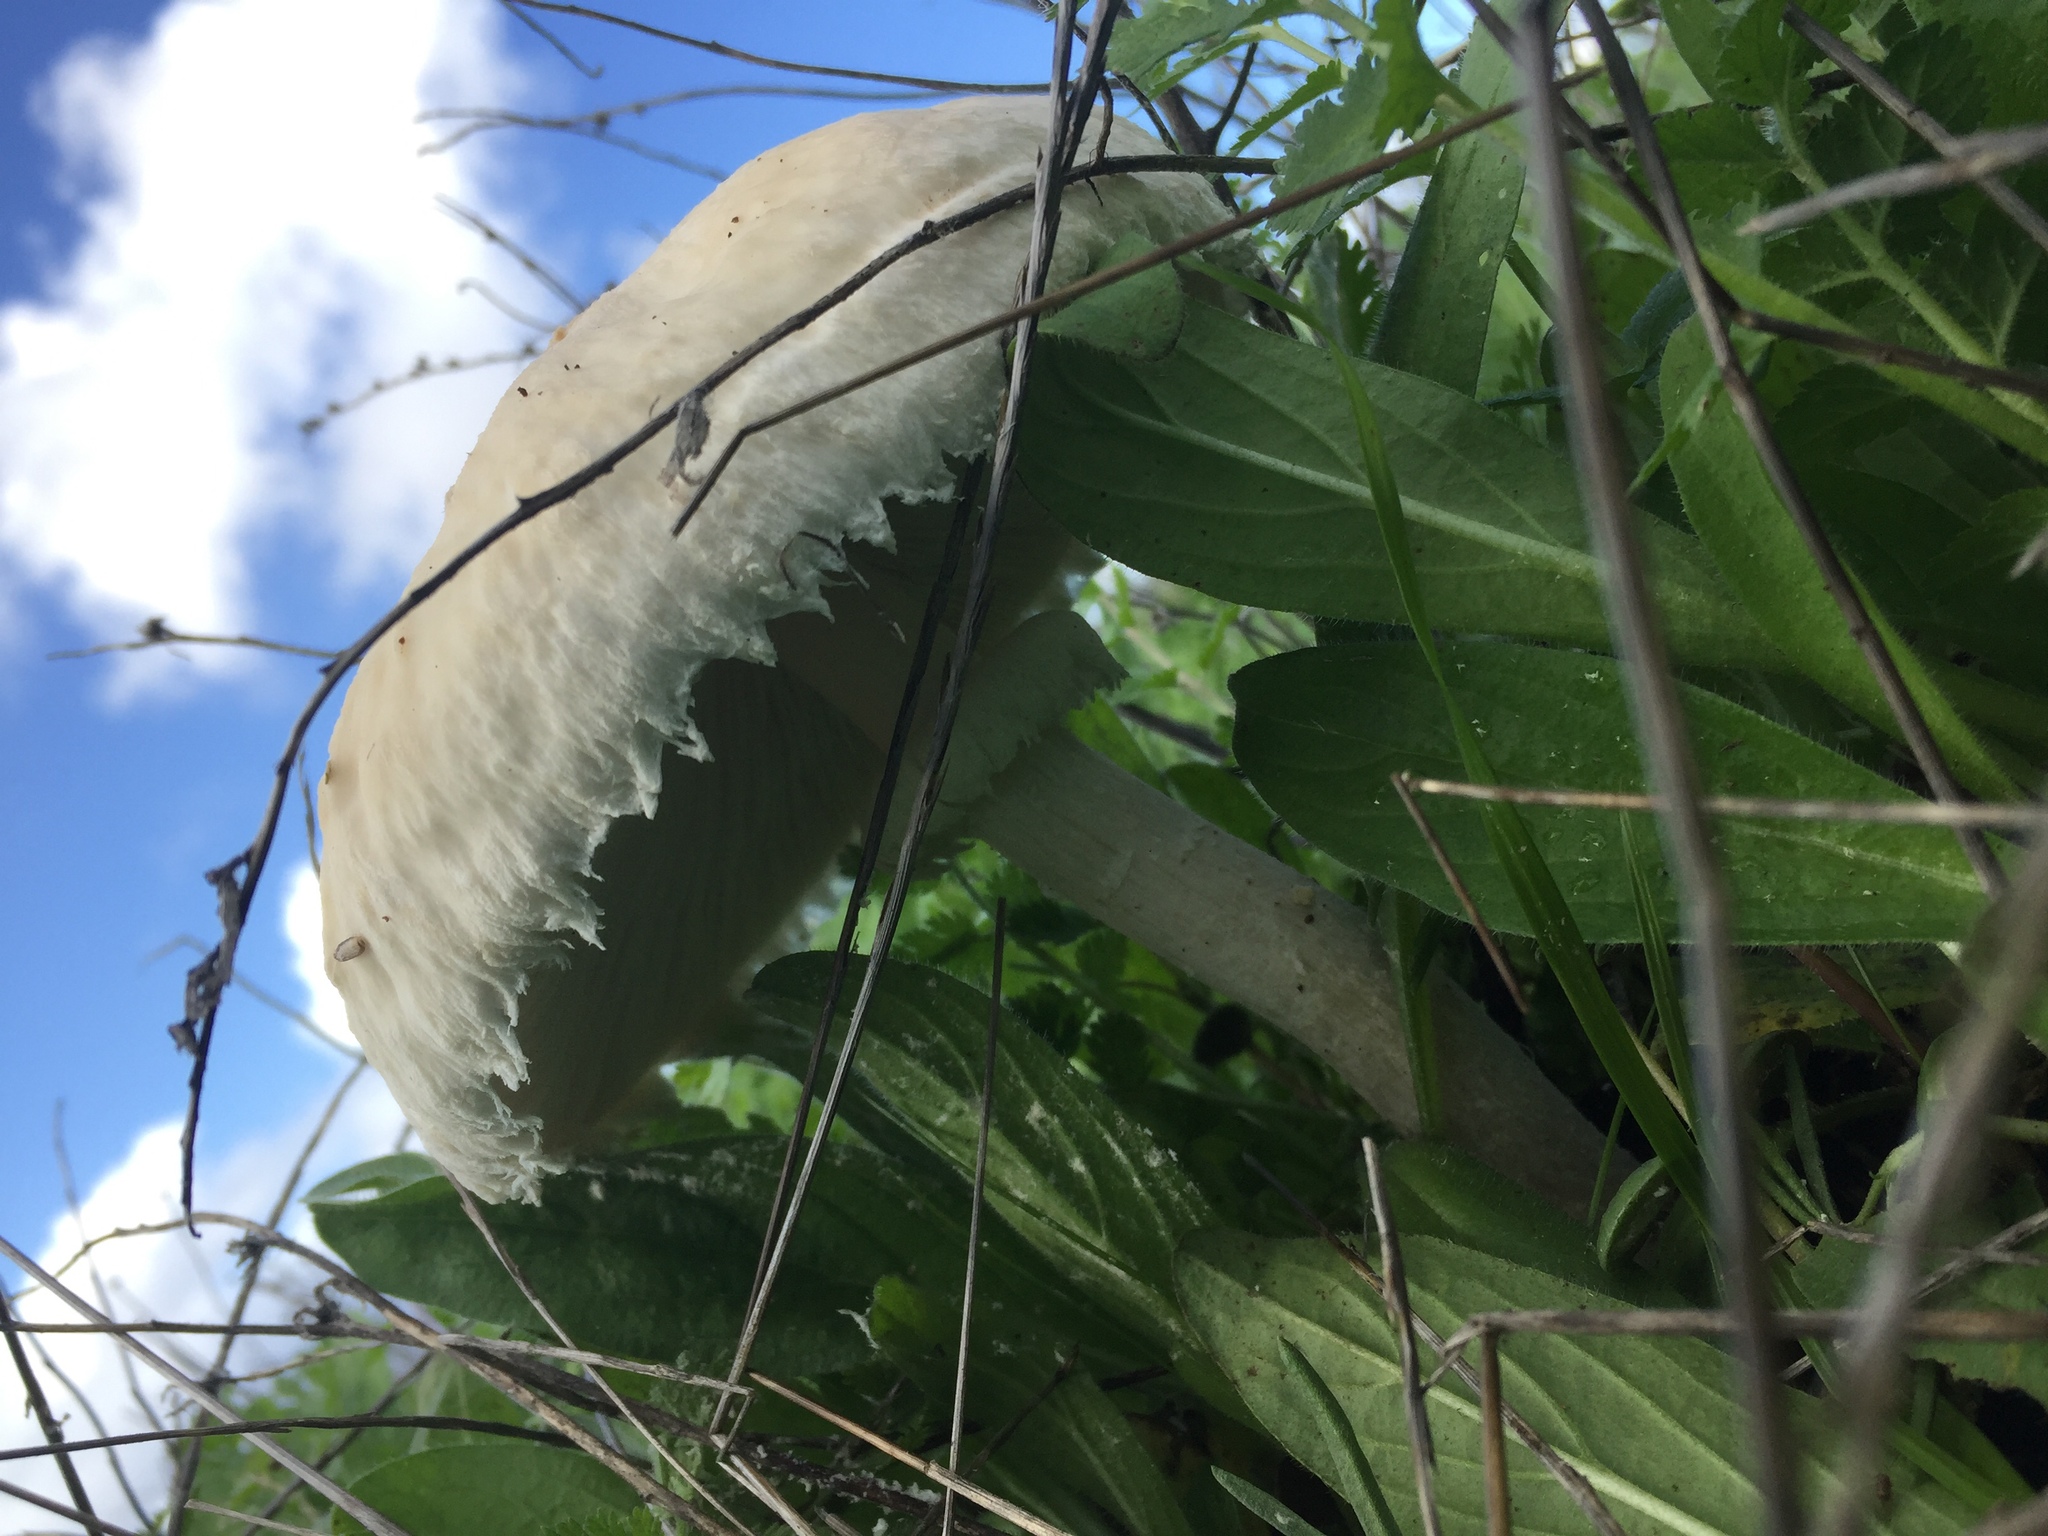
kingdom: Fungi
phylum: Basidiomycota
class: Agaricomycetes
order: Agaricales
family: Agaricaceae
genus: Macrolepiota
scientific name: Macrolepiota zeyheri
